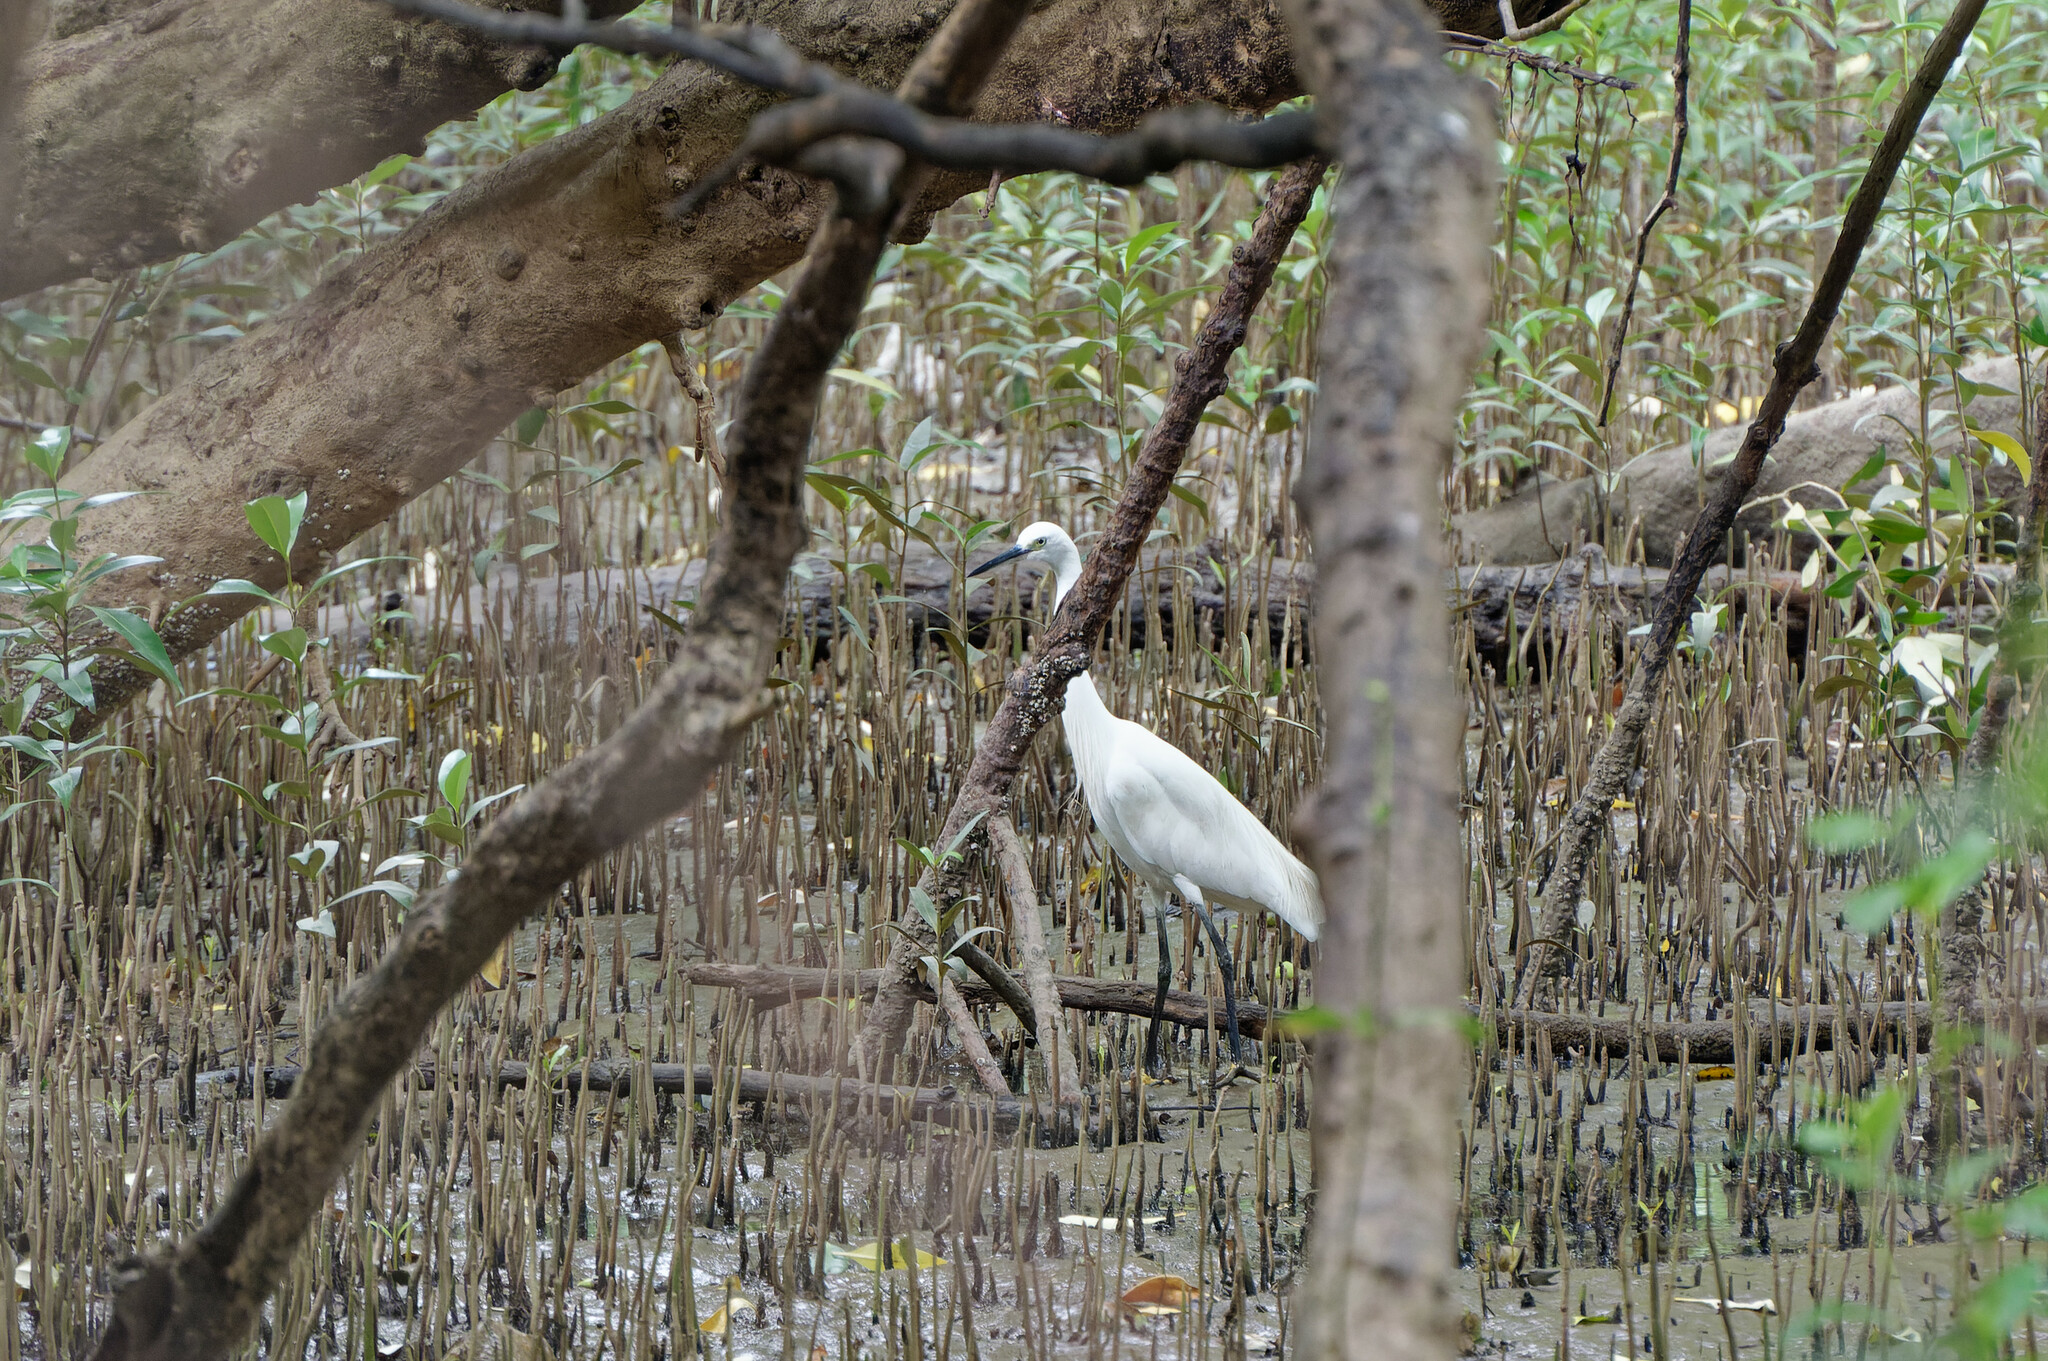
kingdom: Animalia
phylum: Chordata
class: Aves
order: Pelecaniformes
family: Ardeidae
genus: Egretta
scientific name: Egretta garzetta
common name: Little egret
